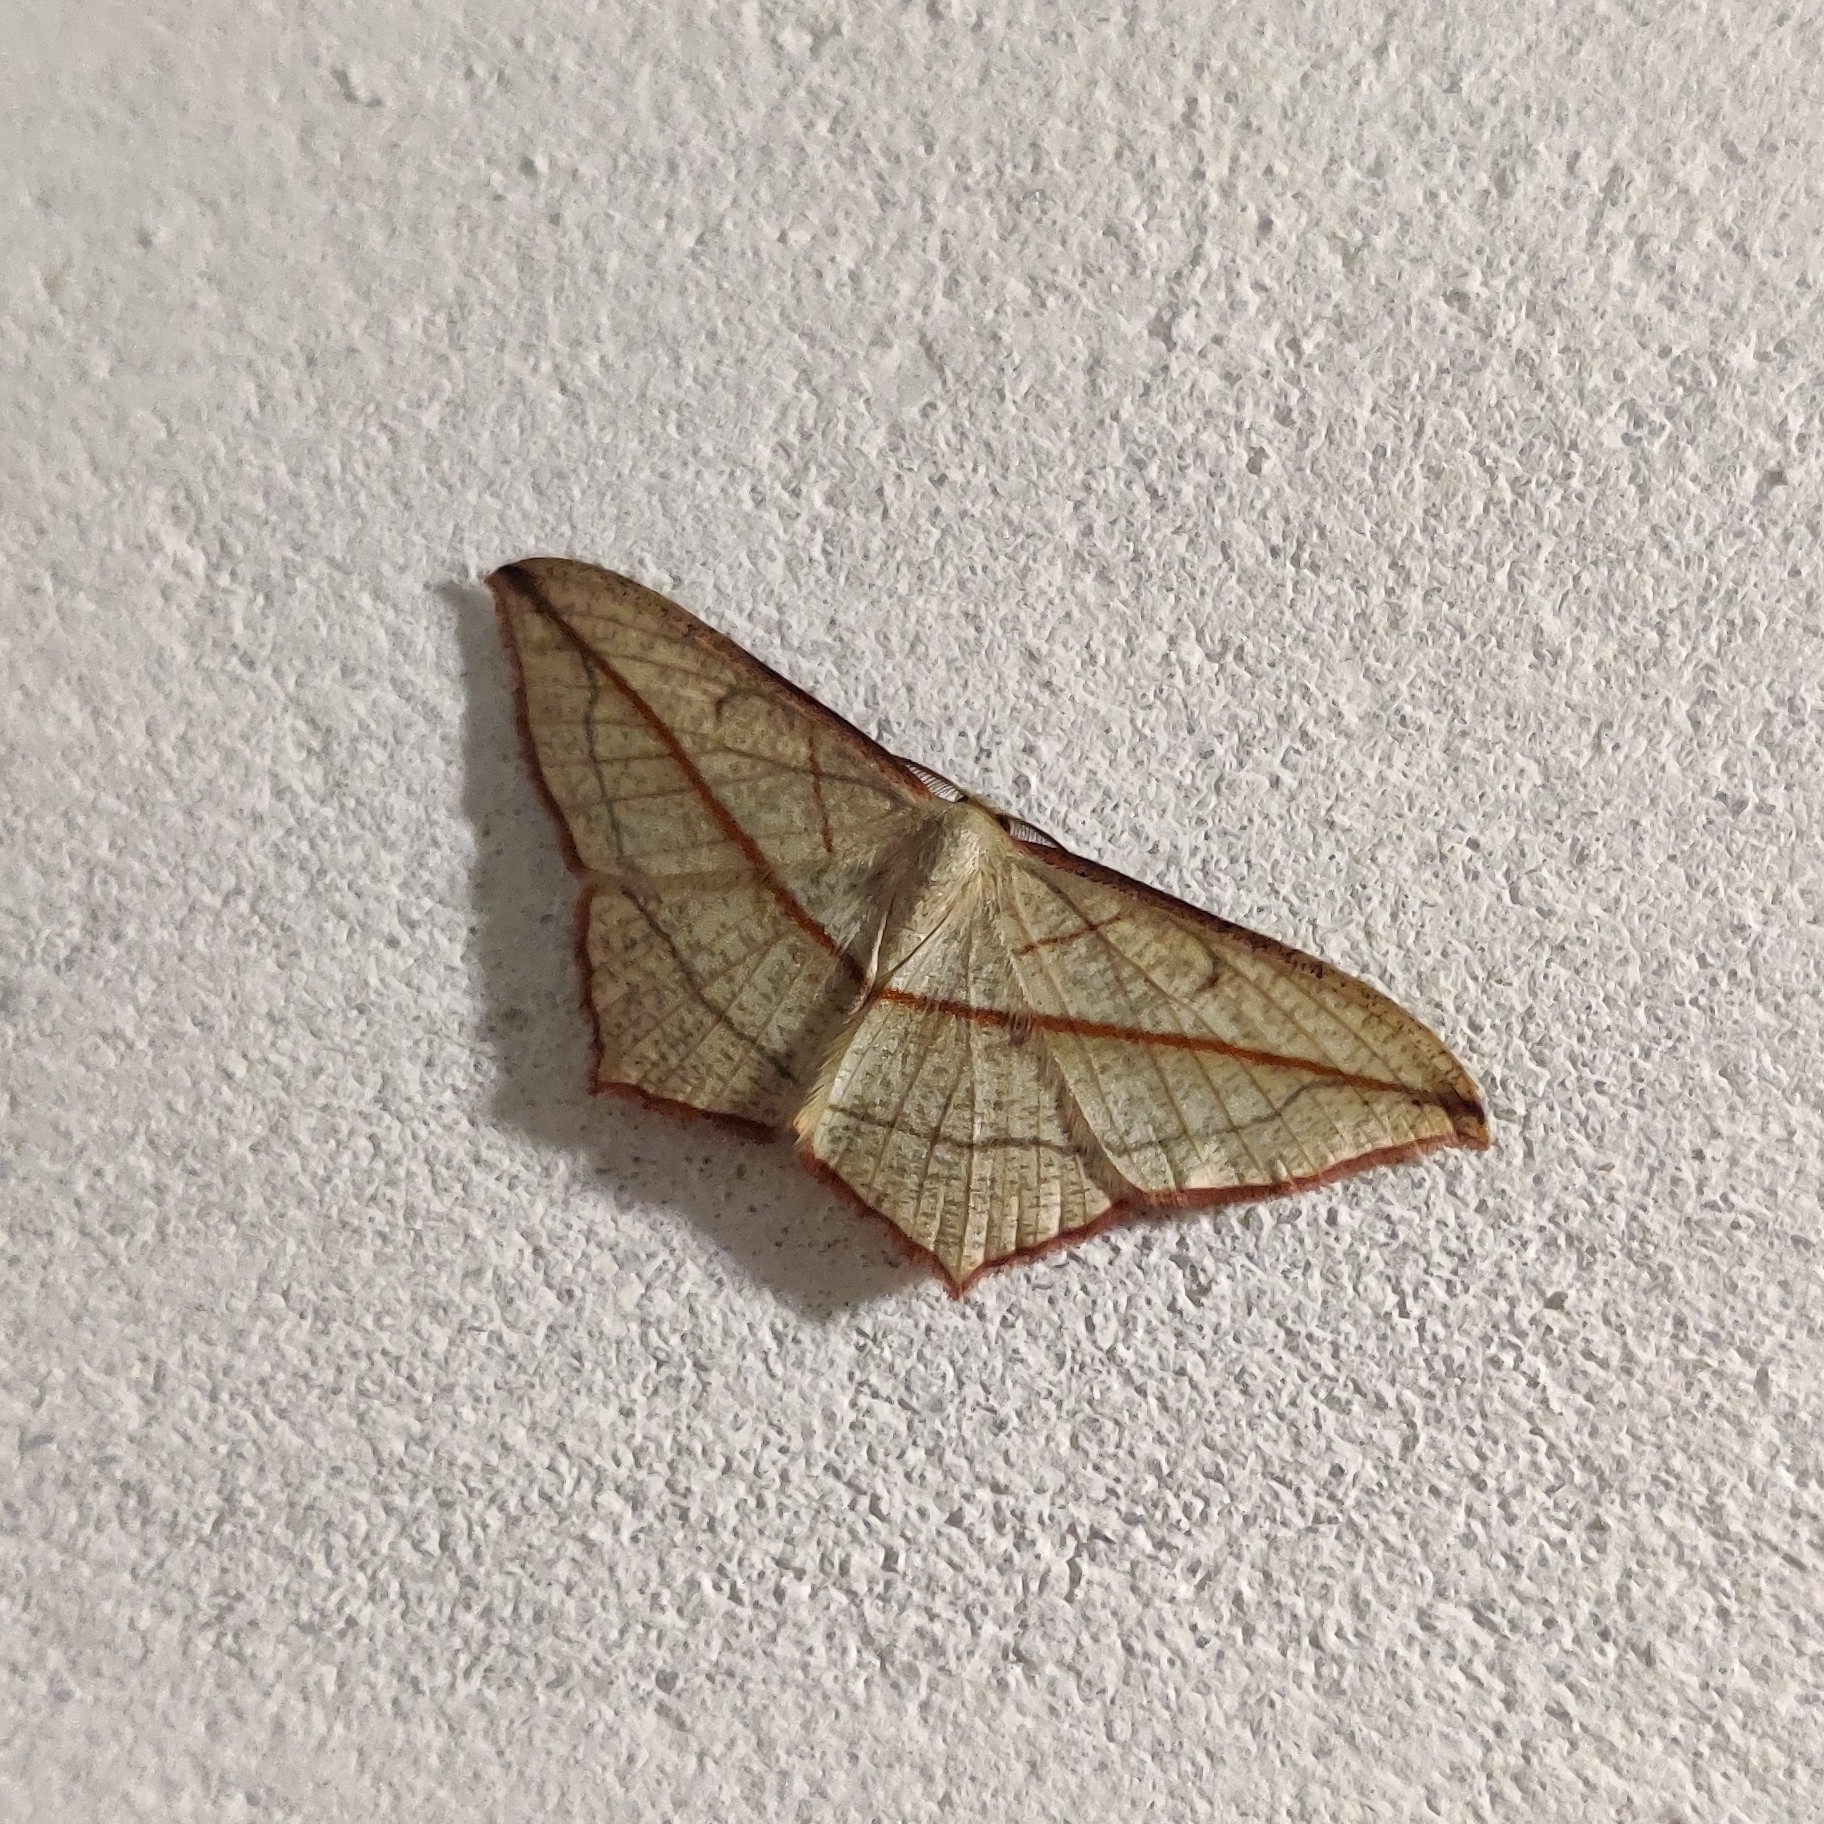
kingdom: Animalia
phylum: Arthropoda
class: Insecta
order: Lepidoptera
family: Geometridae
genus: Timandra
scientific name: Timandra correspondens
